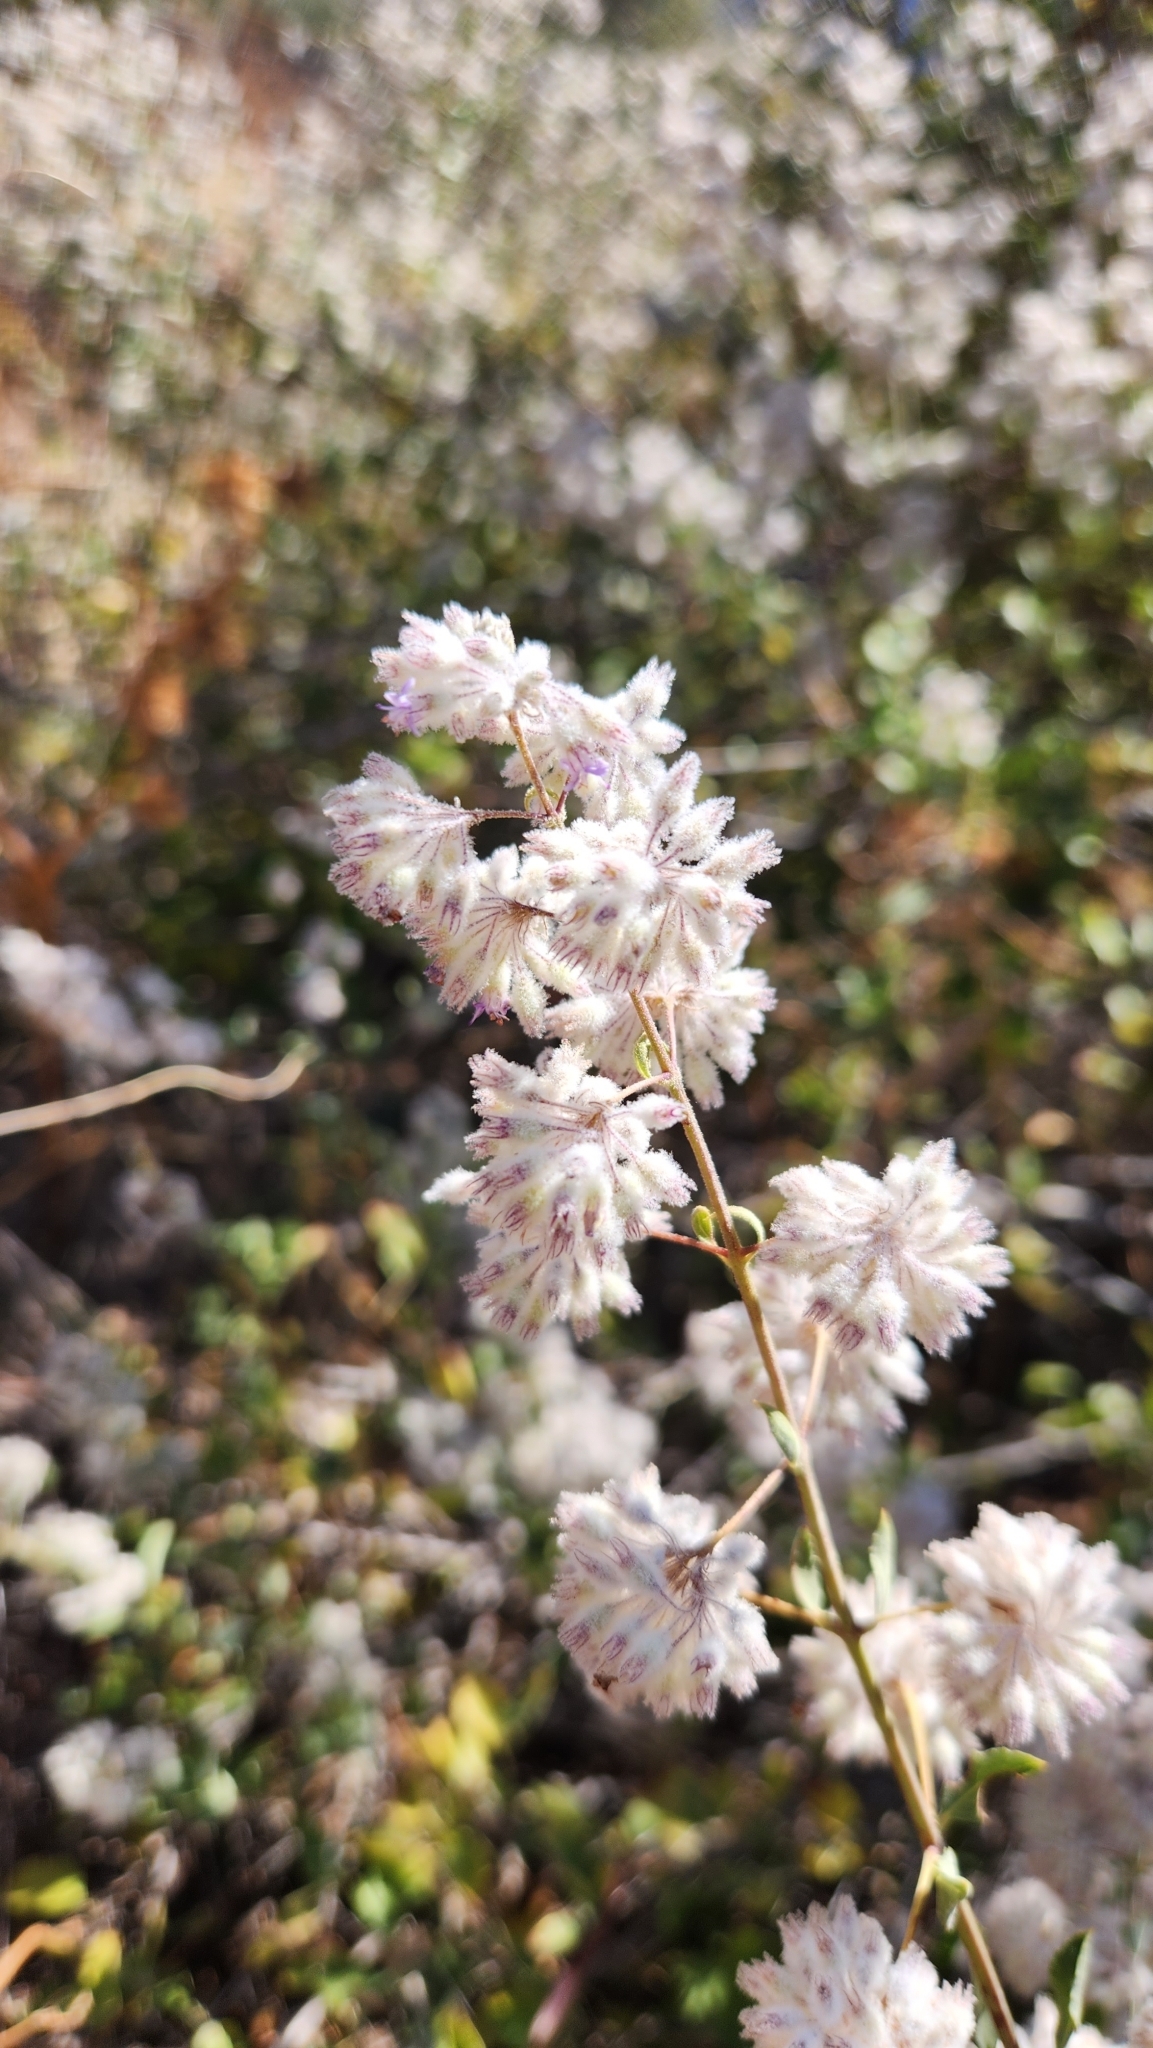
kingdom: Plantae
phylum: Tracheophyta
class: Magnoliopsida
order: Lamiales
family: Lamiaceae
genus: Condea
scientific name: Condea emoryi
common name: Chia
